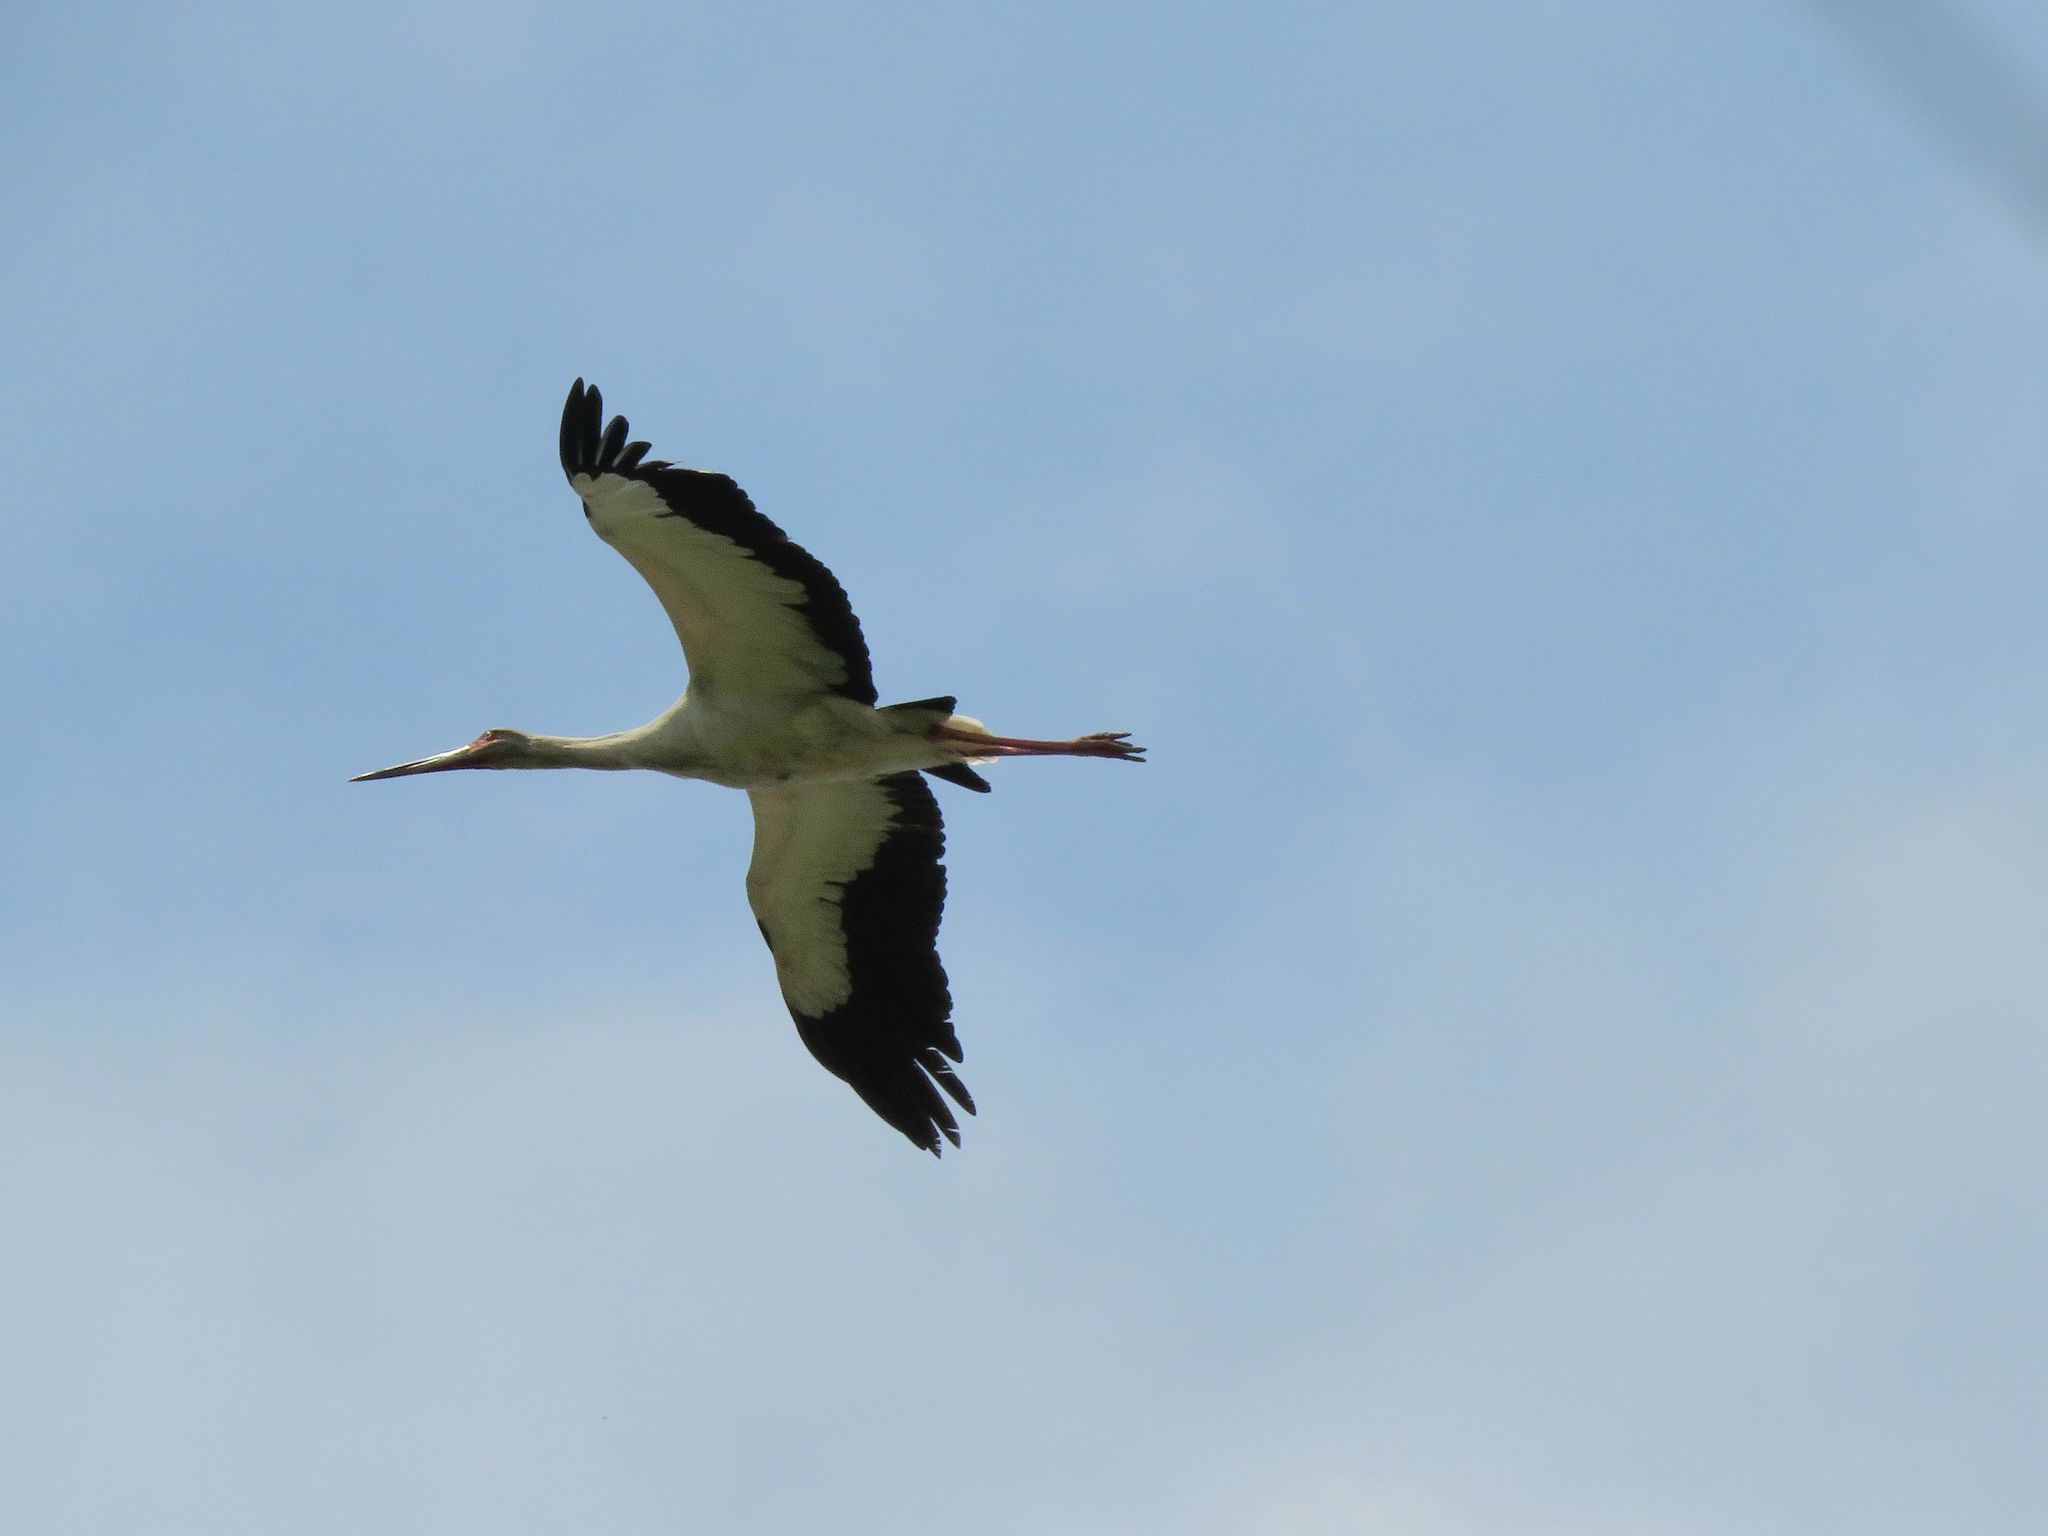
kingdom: Animalia
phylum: Chordata
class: Aves
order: Ciconiiformes
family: Ciconiidae
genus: Ciconia
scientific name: Ciconia maguari
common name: Maguari stork
